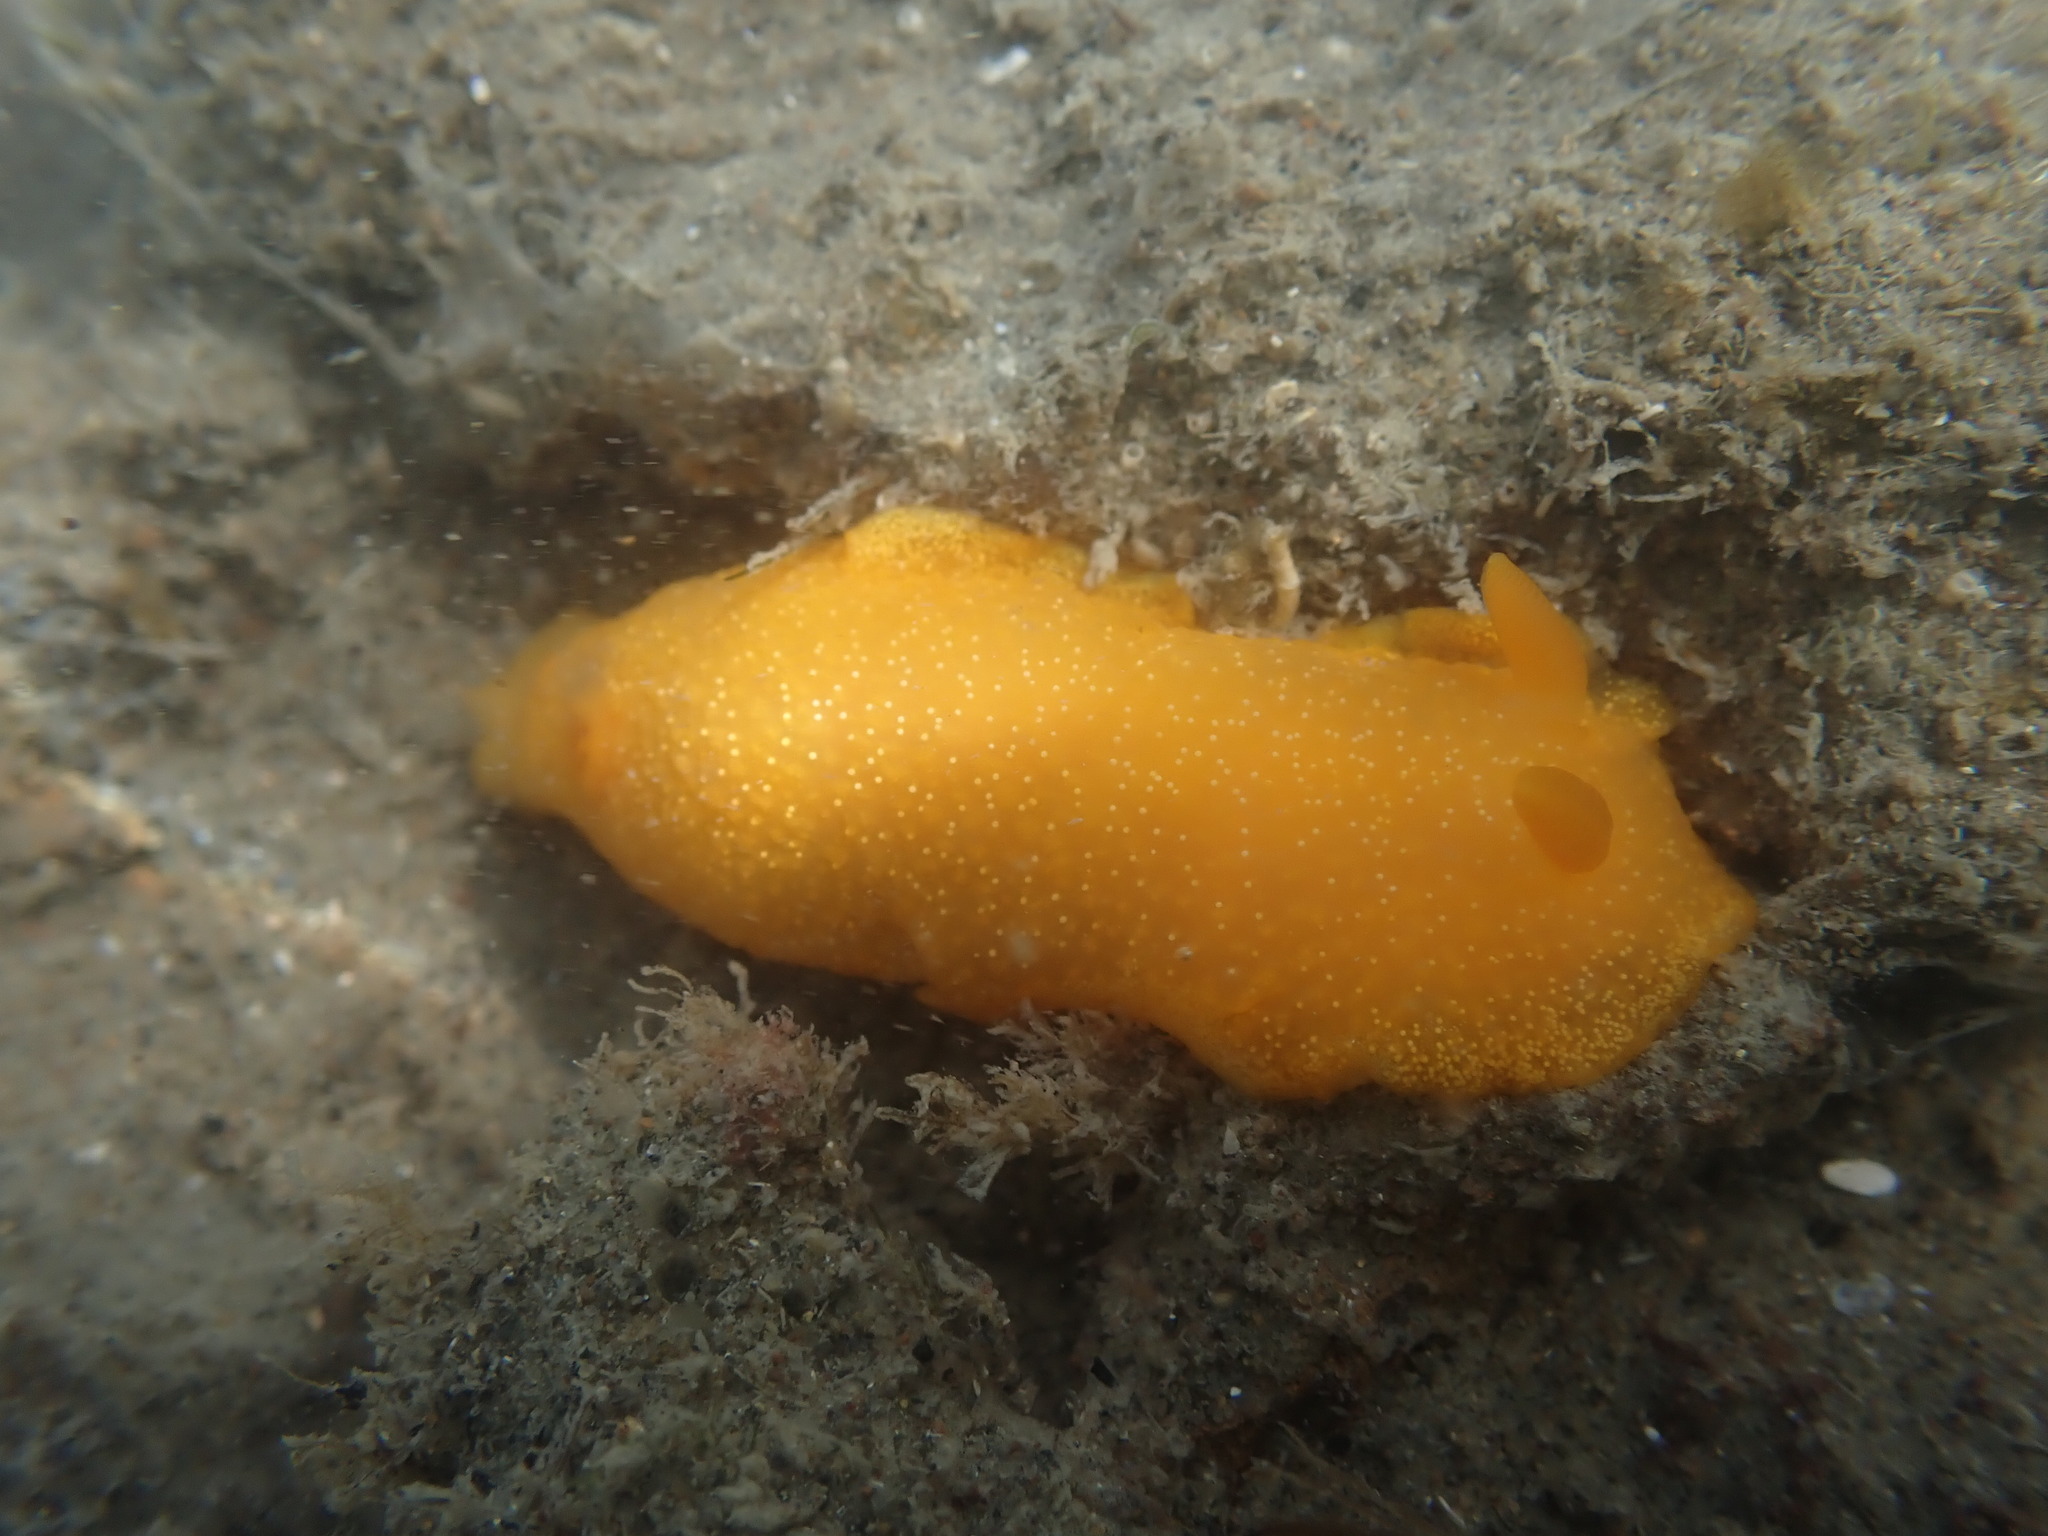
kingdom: Animalia
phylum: Mollusca
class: Gastropoda
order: Nudibranchia
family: Dendrodorididae
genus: Dendrodoris
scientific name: Dendrodoris citrina
